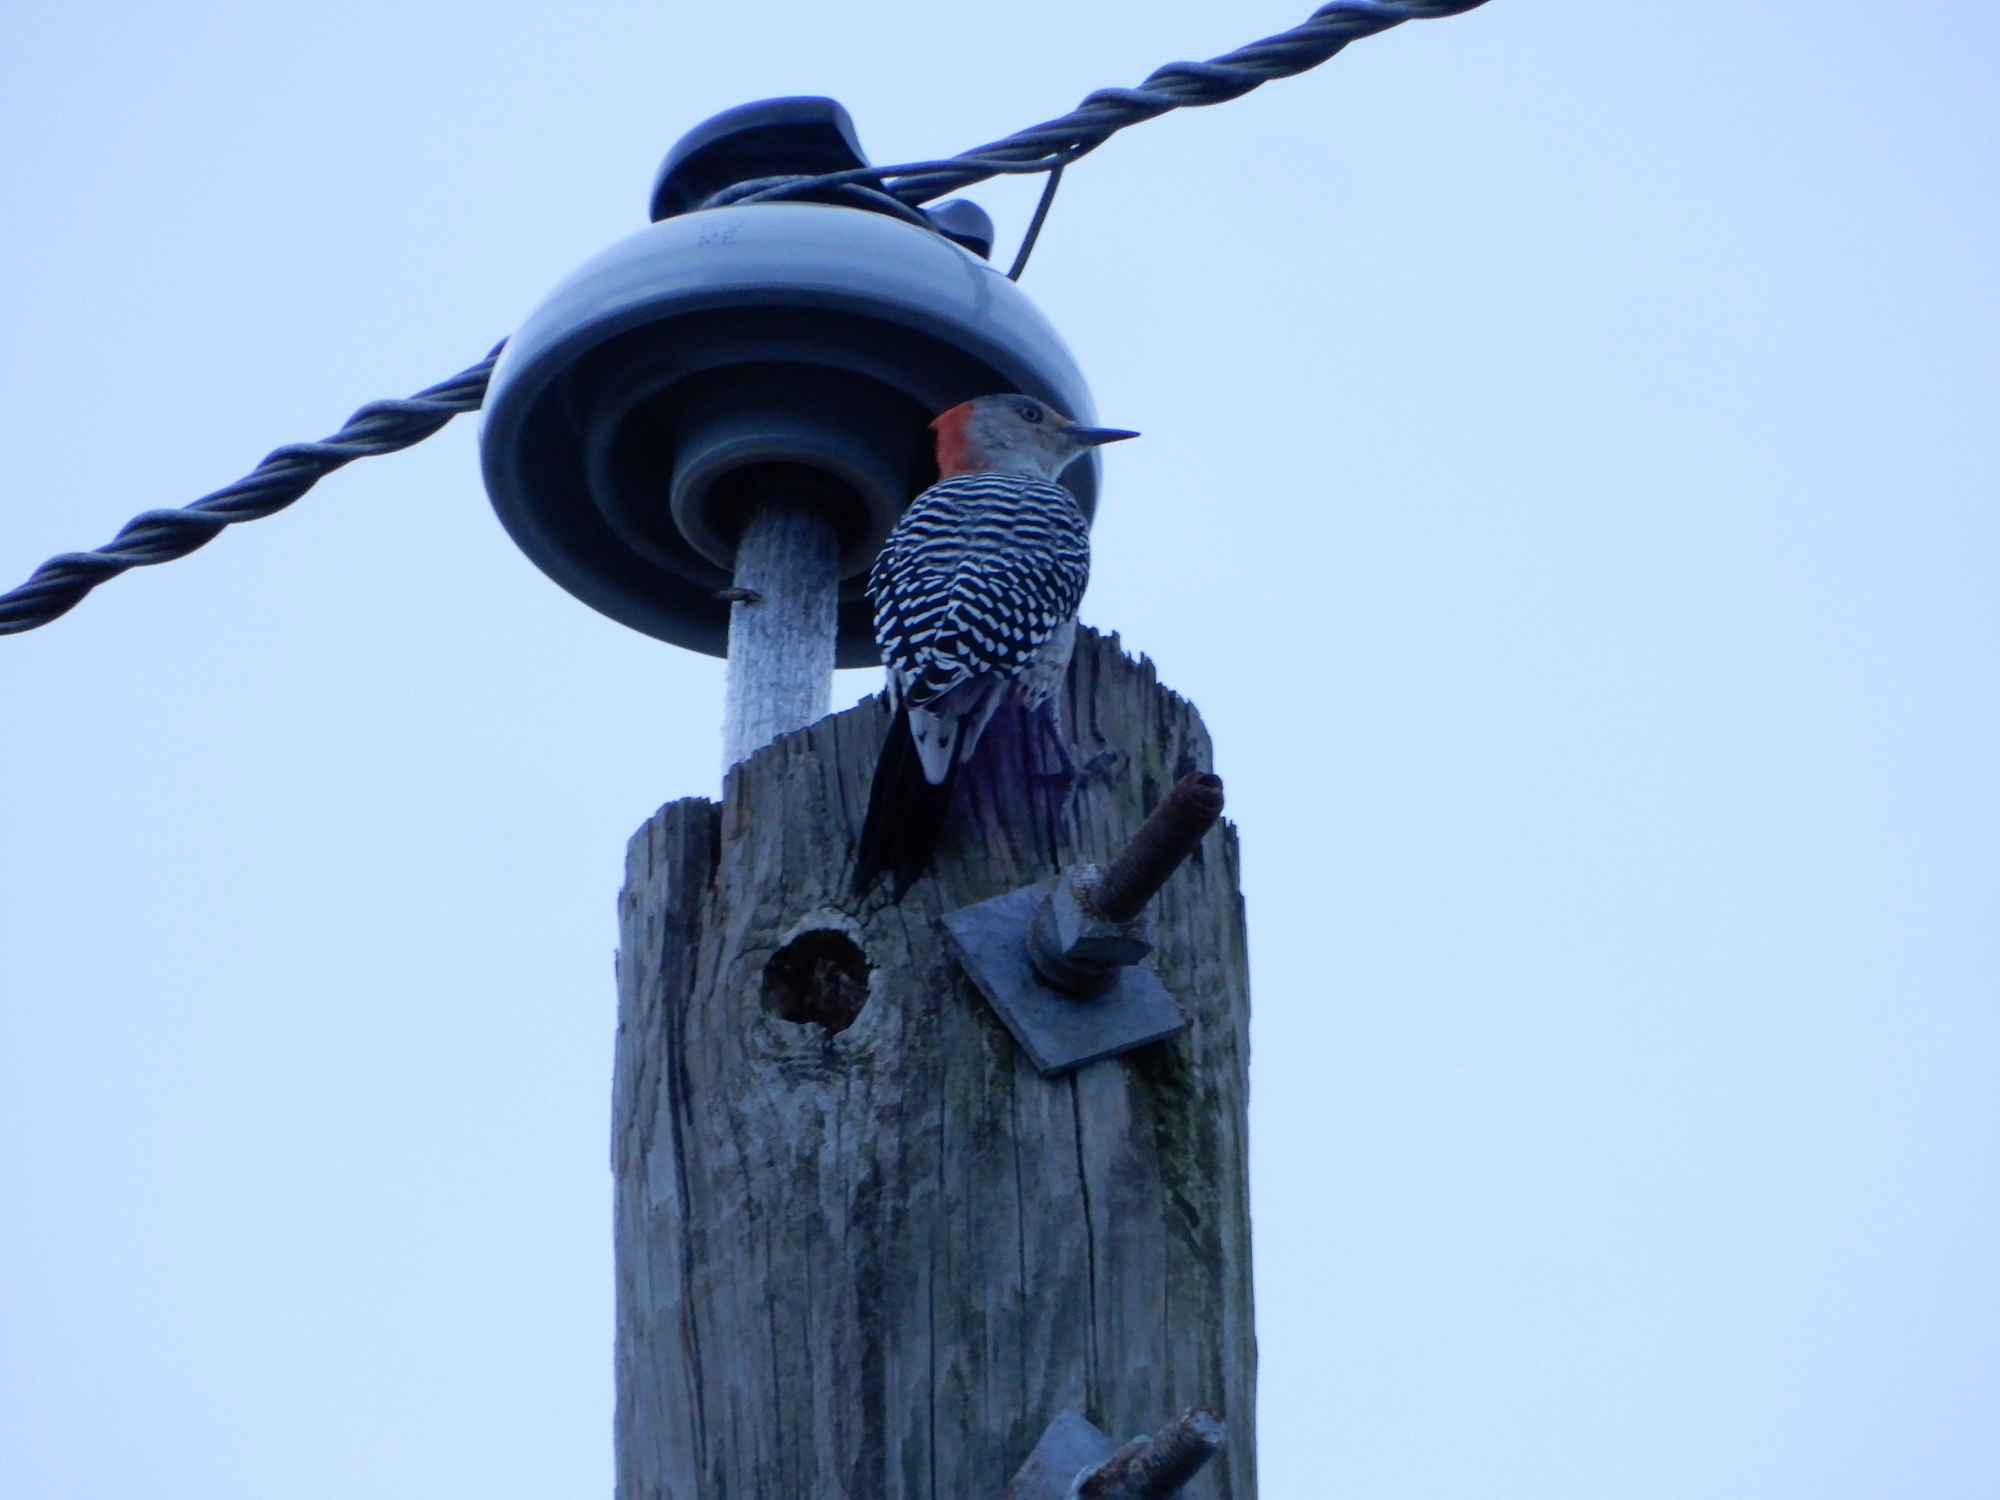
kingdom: Animalia
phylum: Chordata
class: Aves
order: Piciformes
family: Picidae
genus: Melanerpes
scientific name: Melanerpes carolinus
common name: Red-bellied woodpecker
